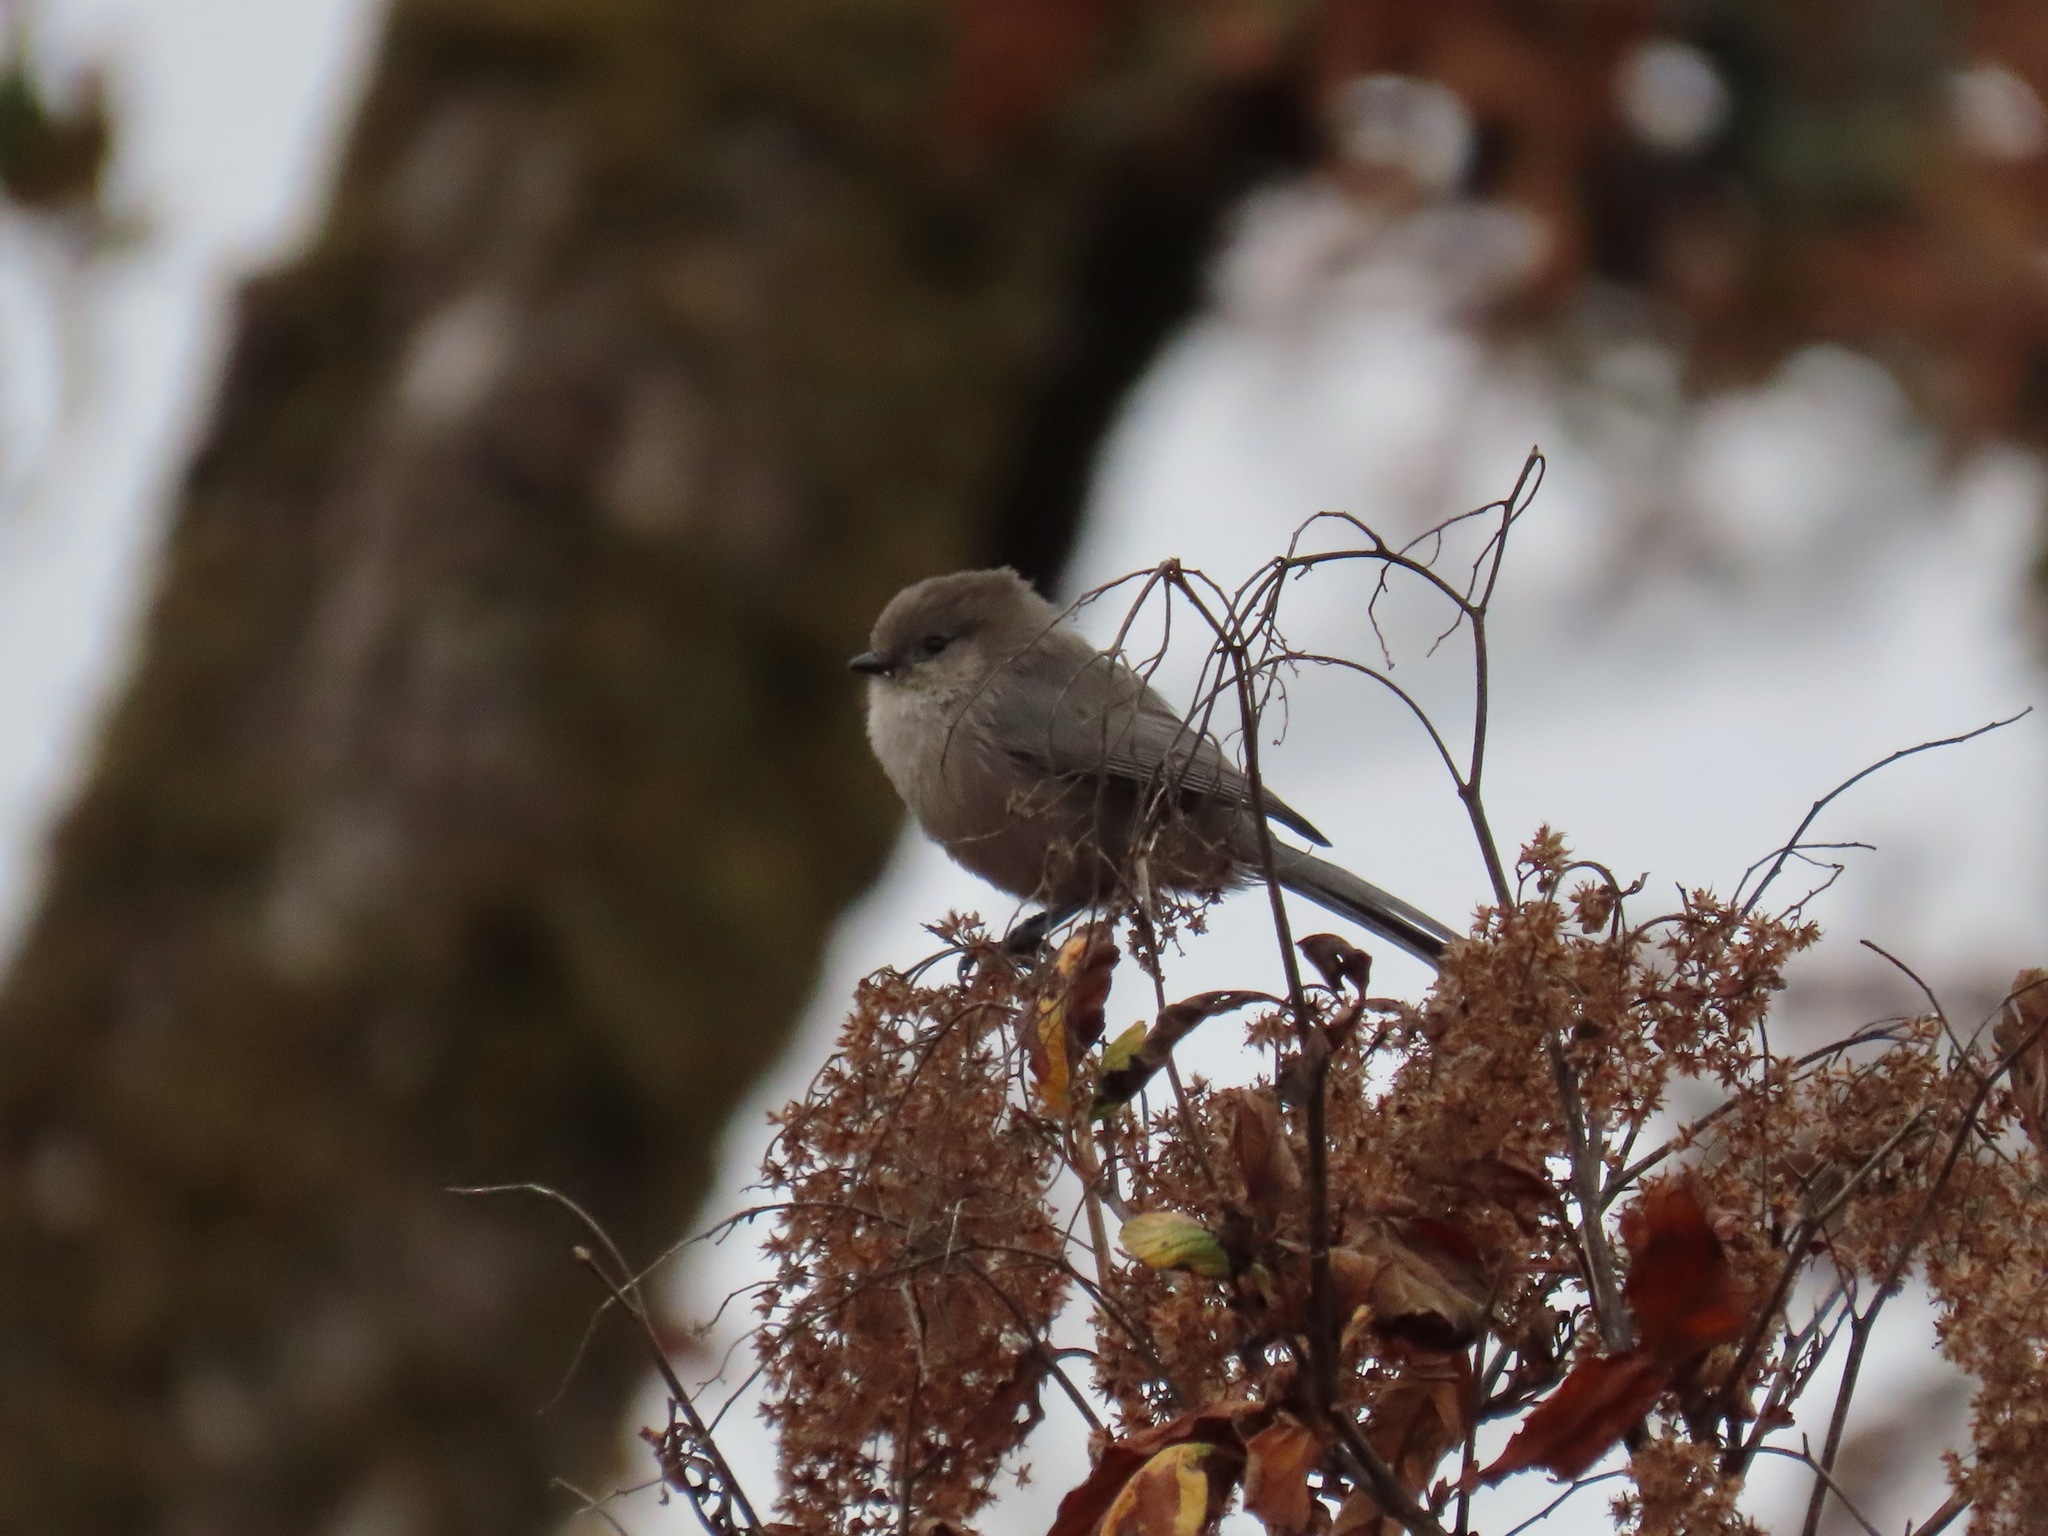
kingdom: Animalia
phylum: Chordata
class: Aves
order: Passeriformes
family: Aegithalidae
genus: Psaltriparus
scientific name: Psaltriparus minimus
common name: American bushtit
